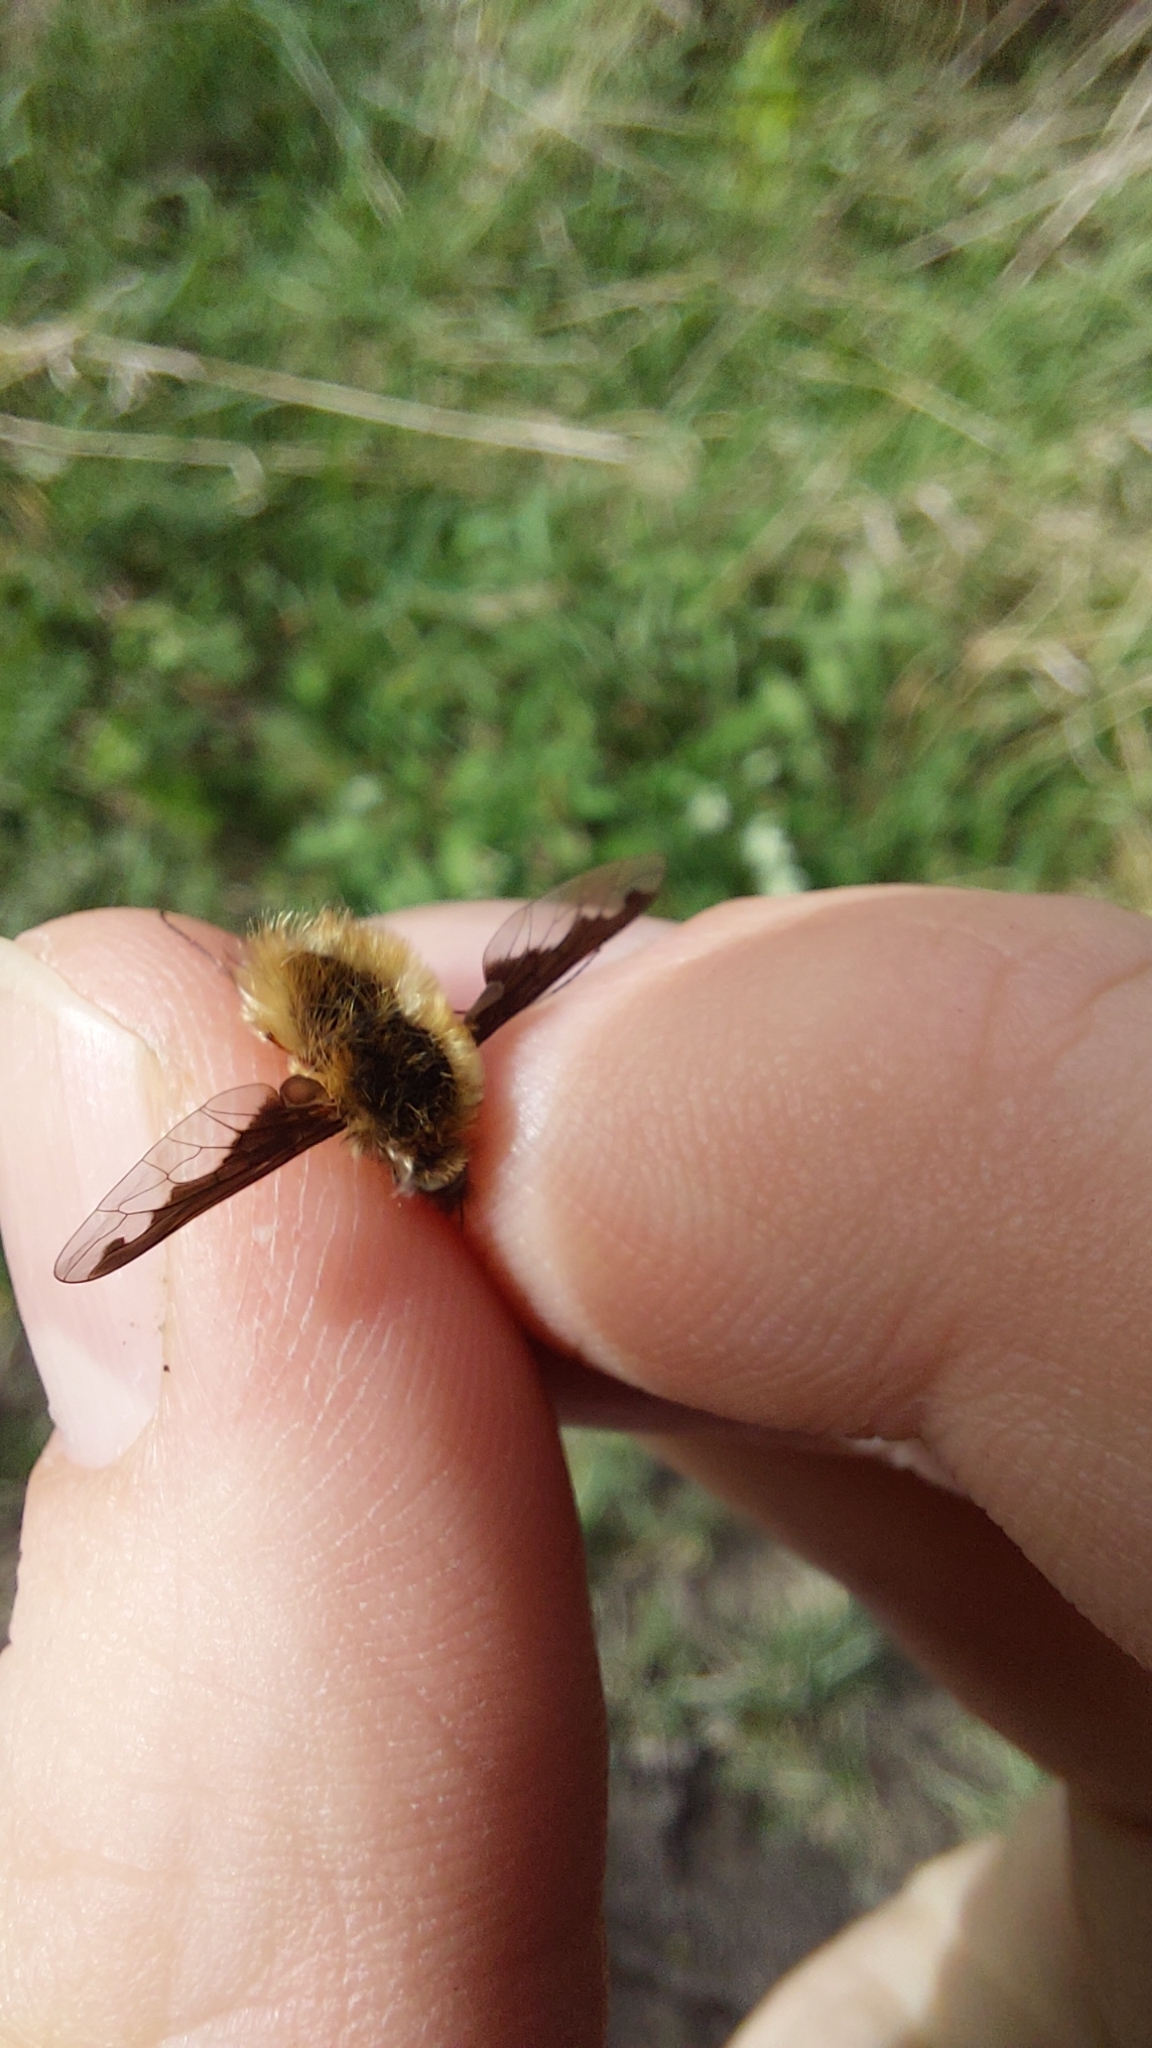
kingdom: Animalia
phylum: Arthropoda
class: Insecta
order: Diptera
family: Bombyliidae
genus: Bombylius
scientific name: Bombylius major
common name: Bee fly
